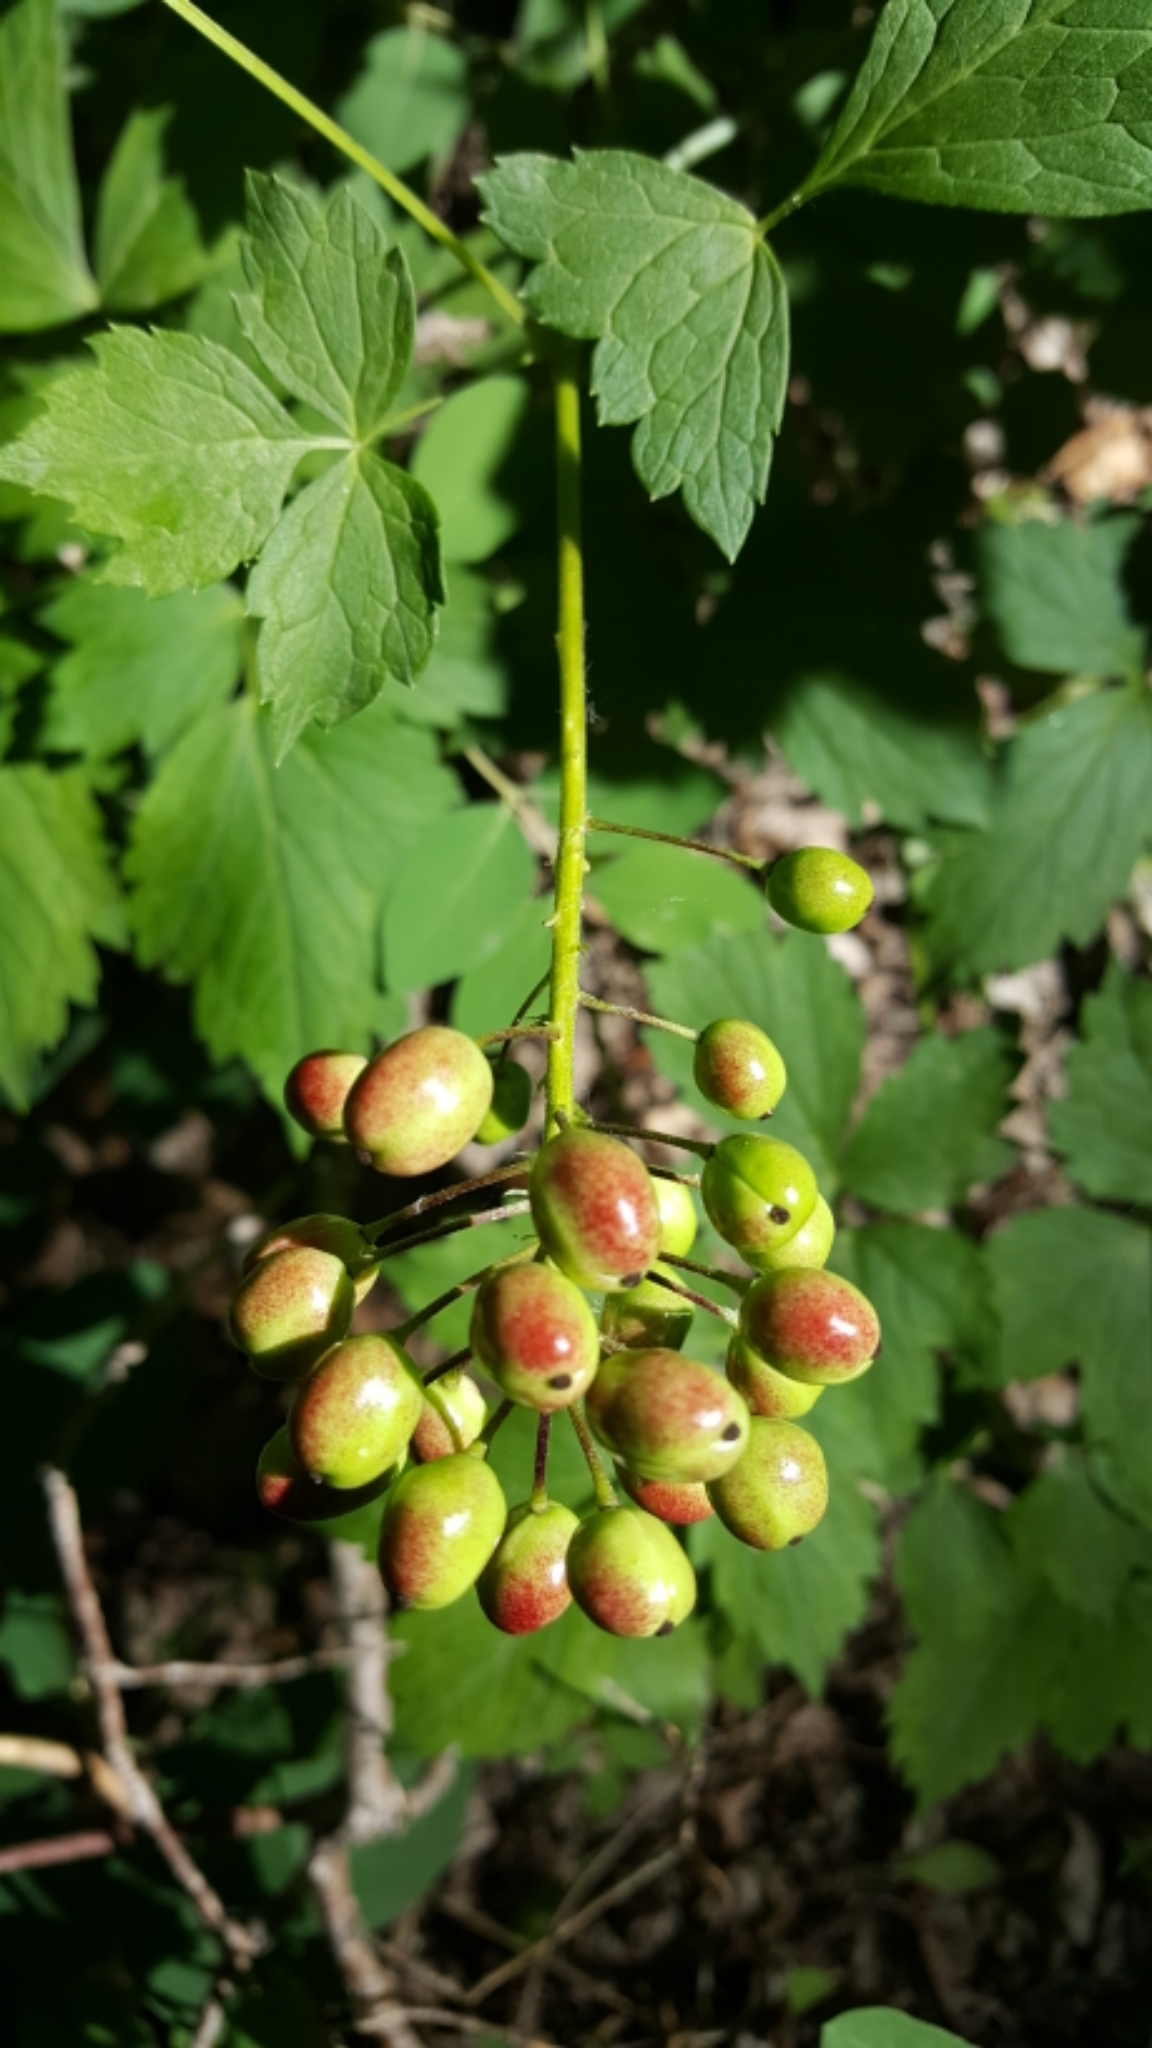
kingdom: Plantae
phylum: Tracheophyta
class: Magnoliopsida
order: Ranunculales
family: Ranunculaceae
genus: Actaea
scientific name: Actaea rubra
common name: Red baneberry
